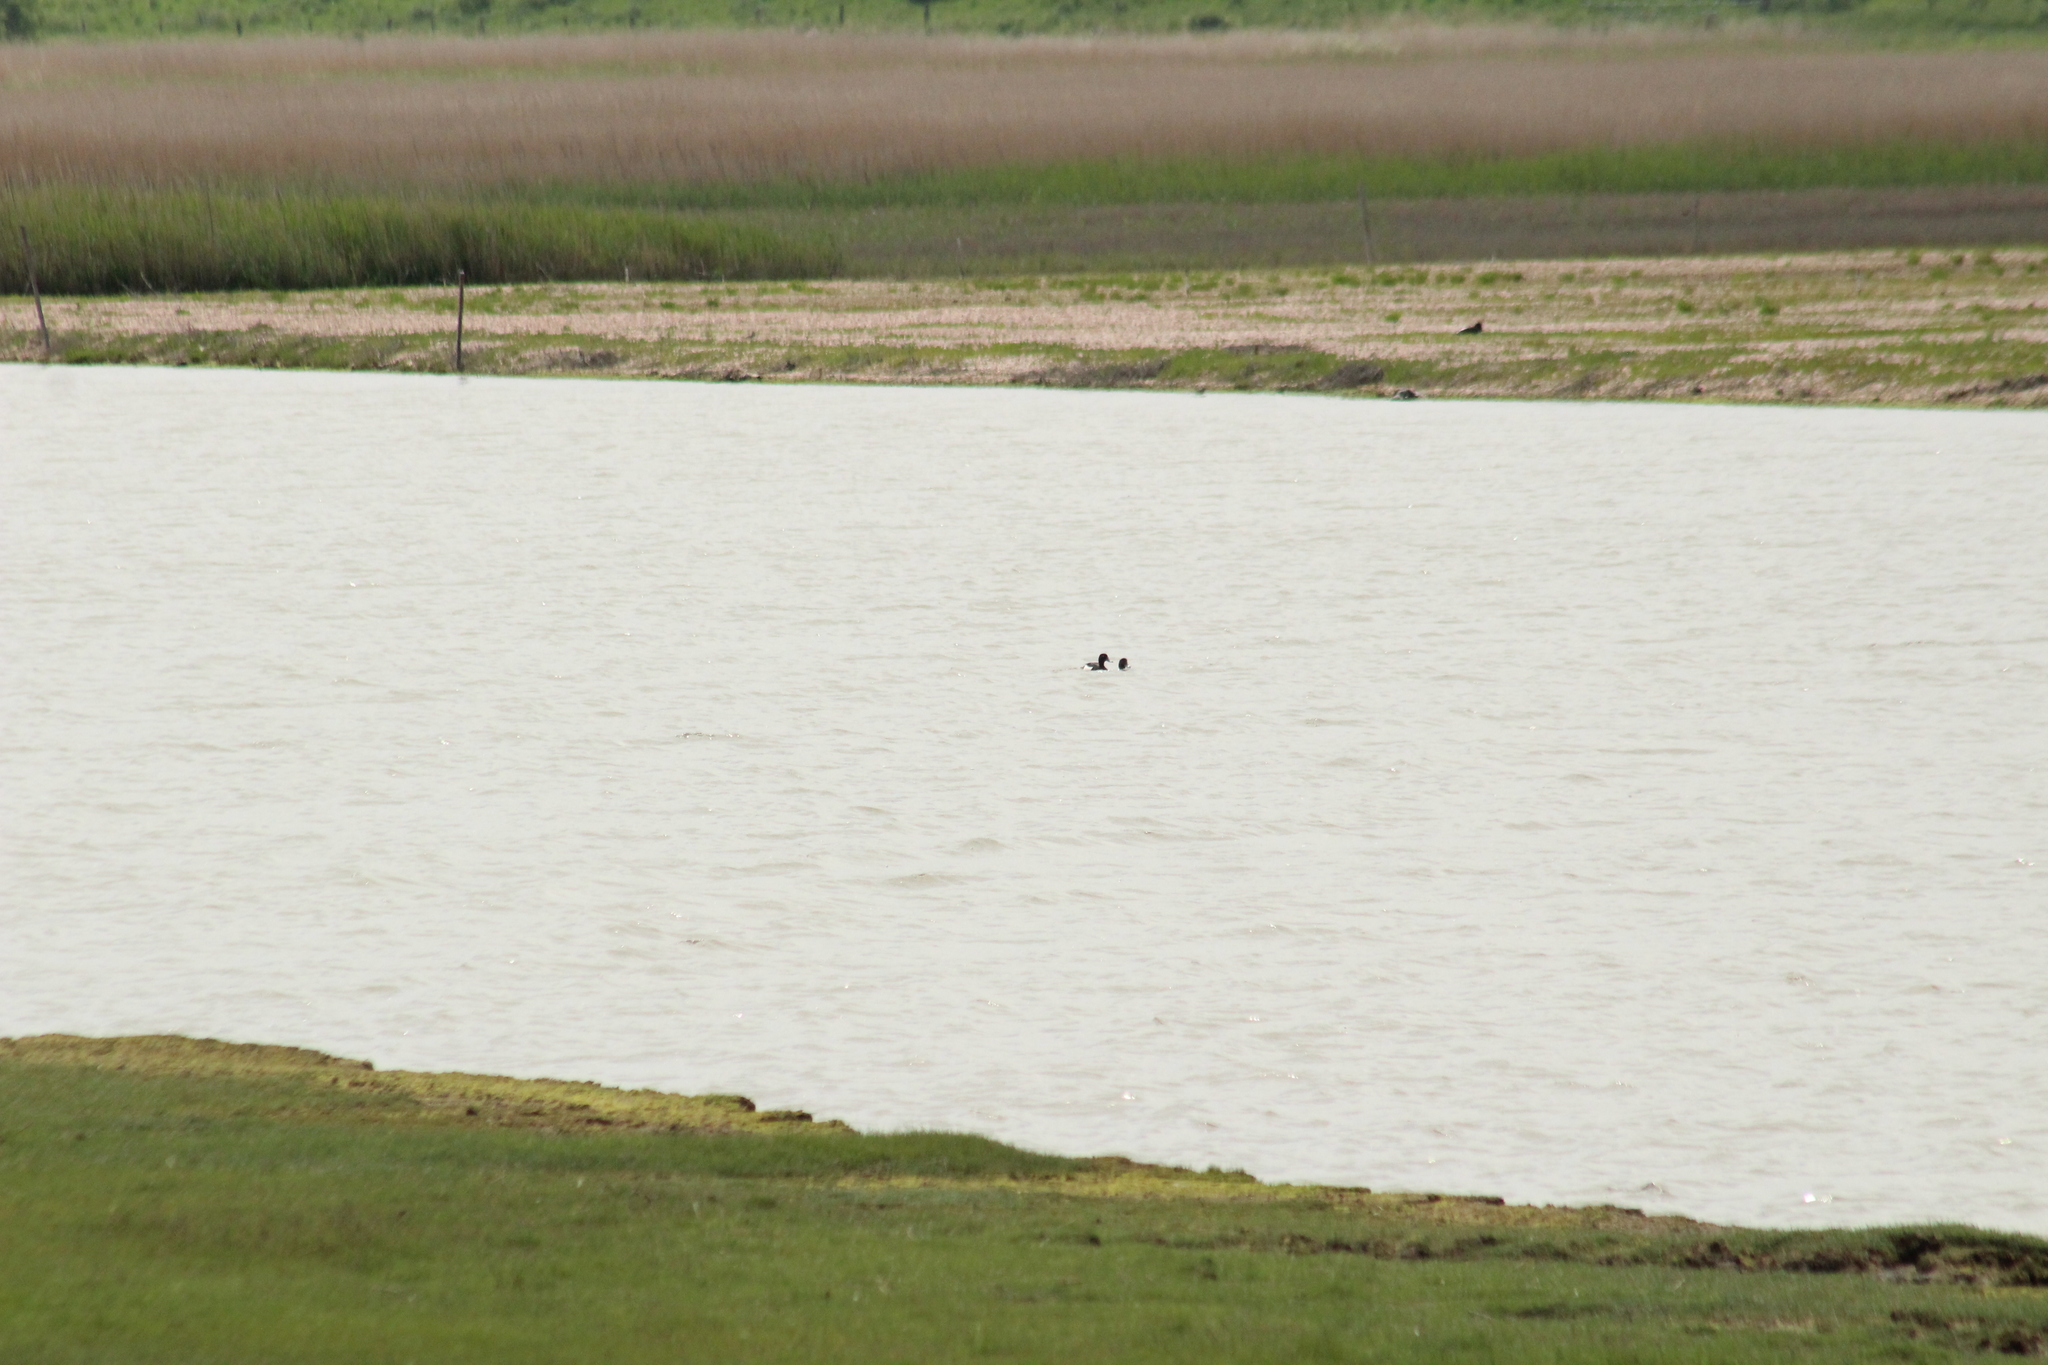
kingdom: Animalia
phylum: Chordata
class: Aves
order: Anseriformes
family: Anatidae
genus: Aythya
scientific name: Aythya fuligula
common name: Tufted duck
